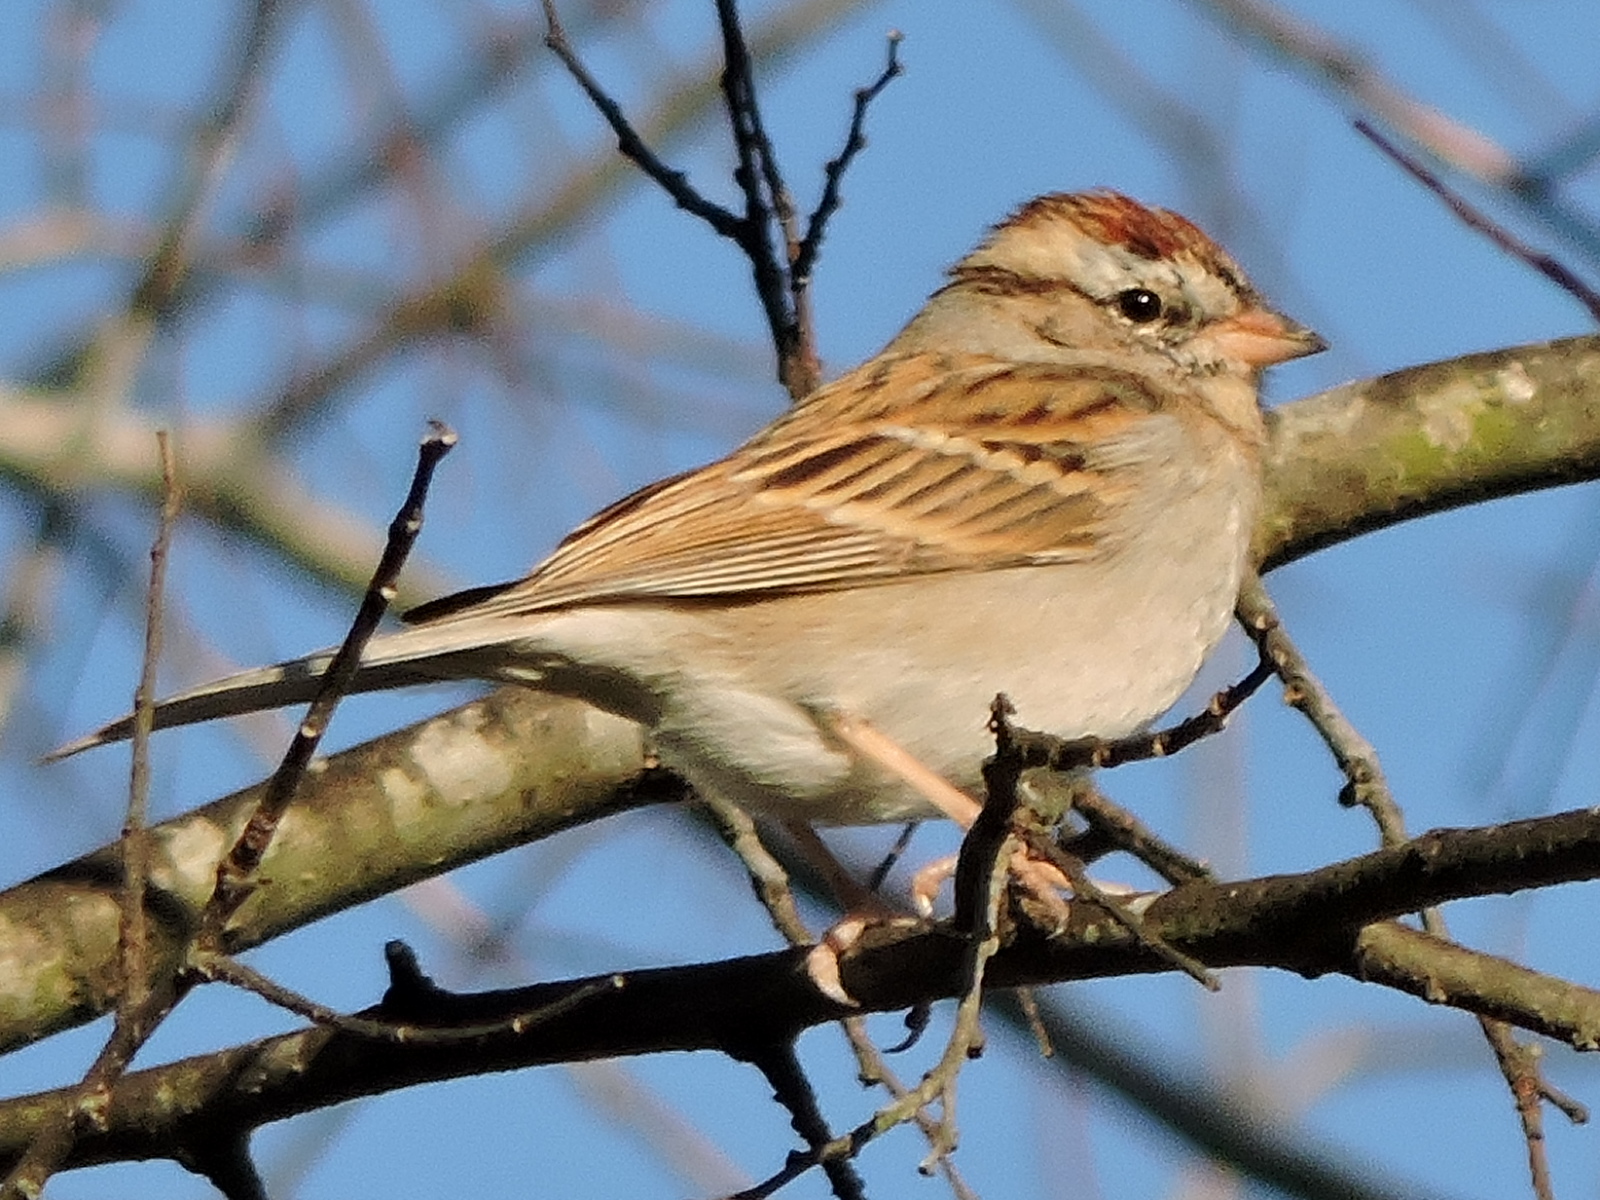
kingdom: Animalia
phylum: Chordata
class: Aves
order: Passeriformes
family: Passerellidae
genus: Spizella
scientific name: Spizella passerina
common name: Chipping sparrow
